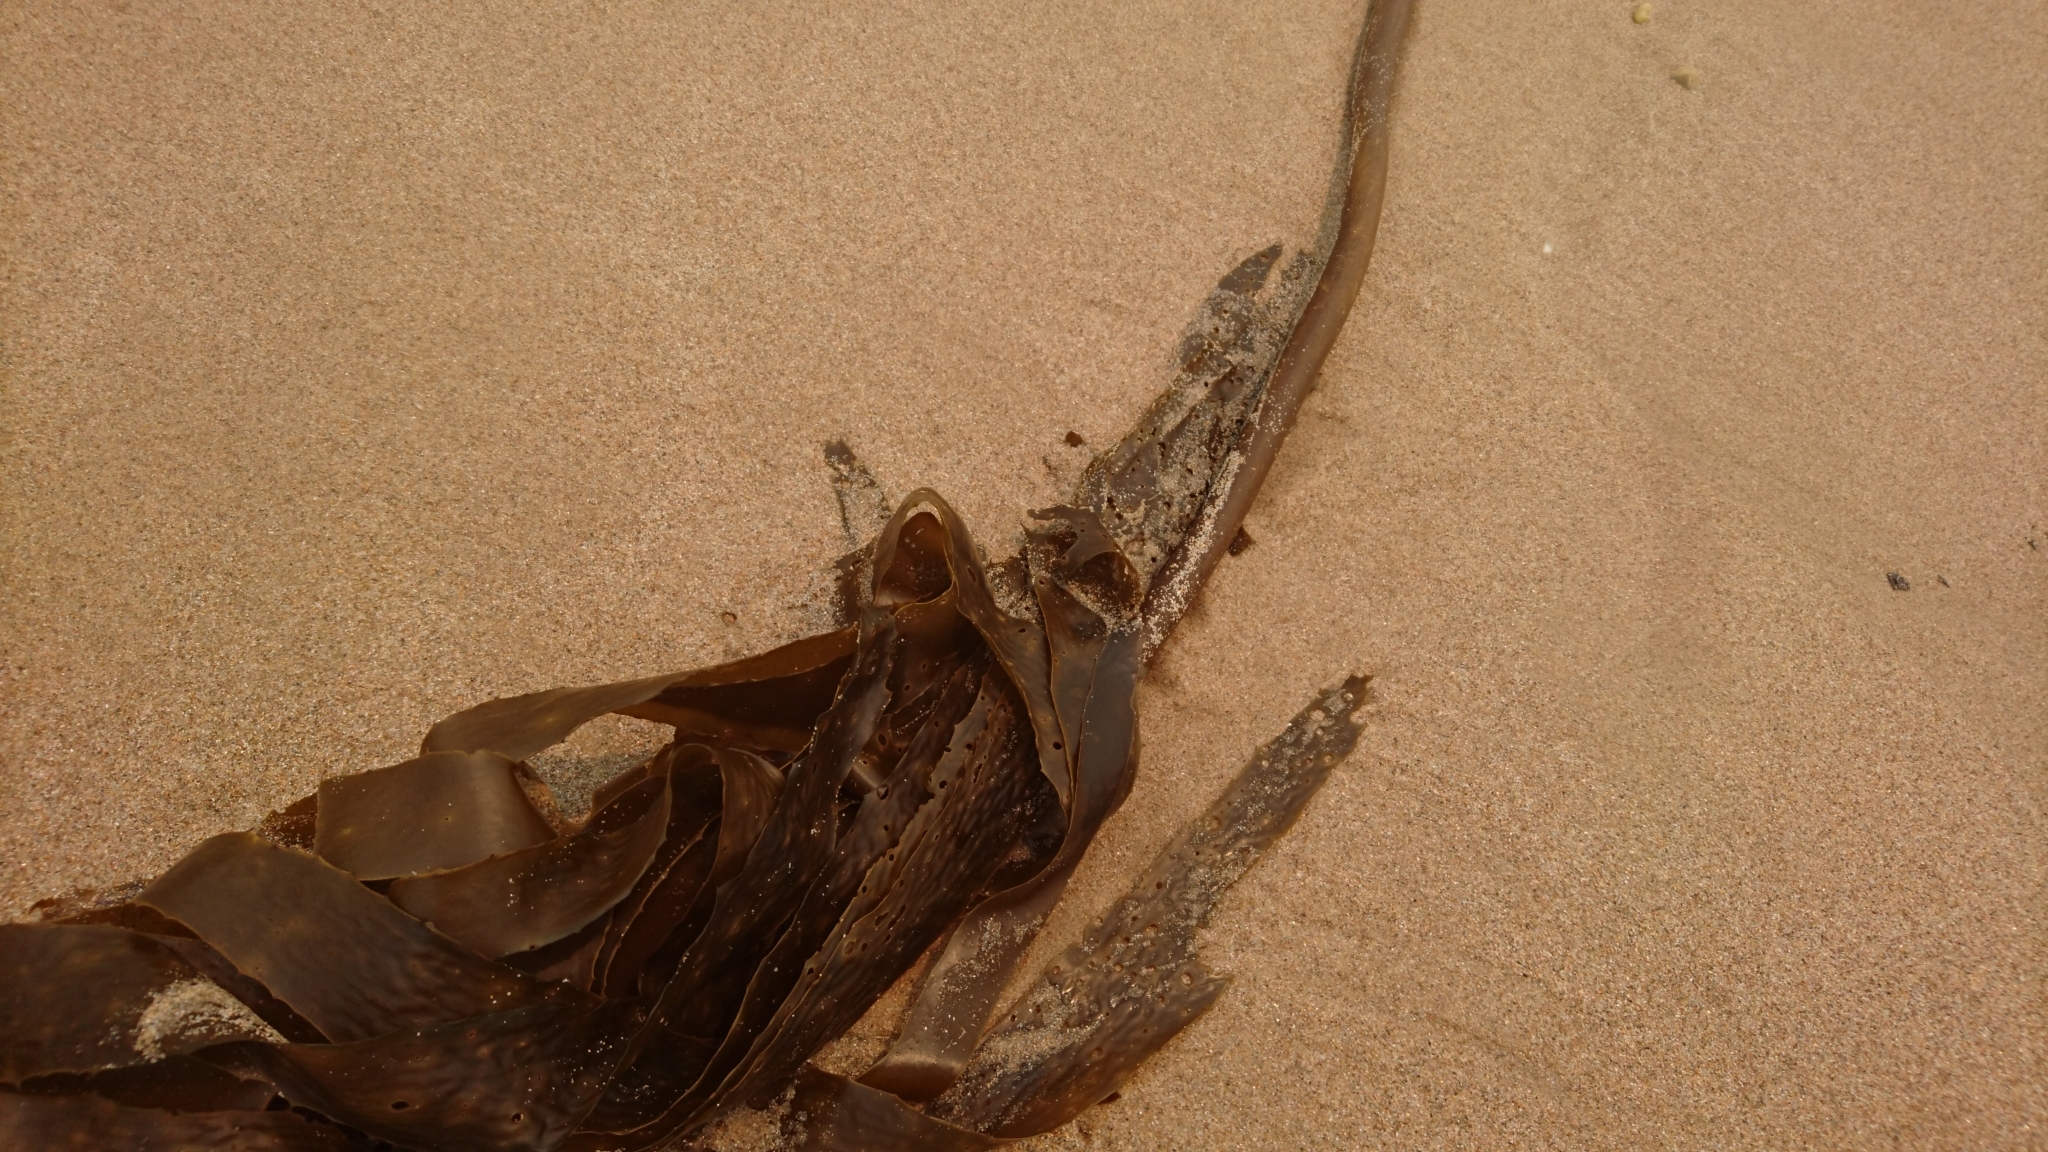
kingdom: Chromista
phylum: Ochrophyta
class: Phaeophyceae
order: Laminariales
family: Lessoniaceae
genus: Ecklonia
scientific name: Ecklonia radiata
